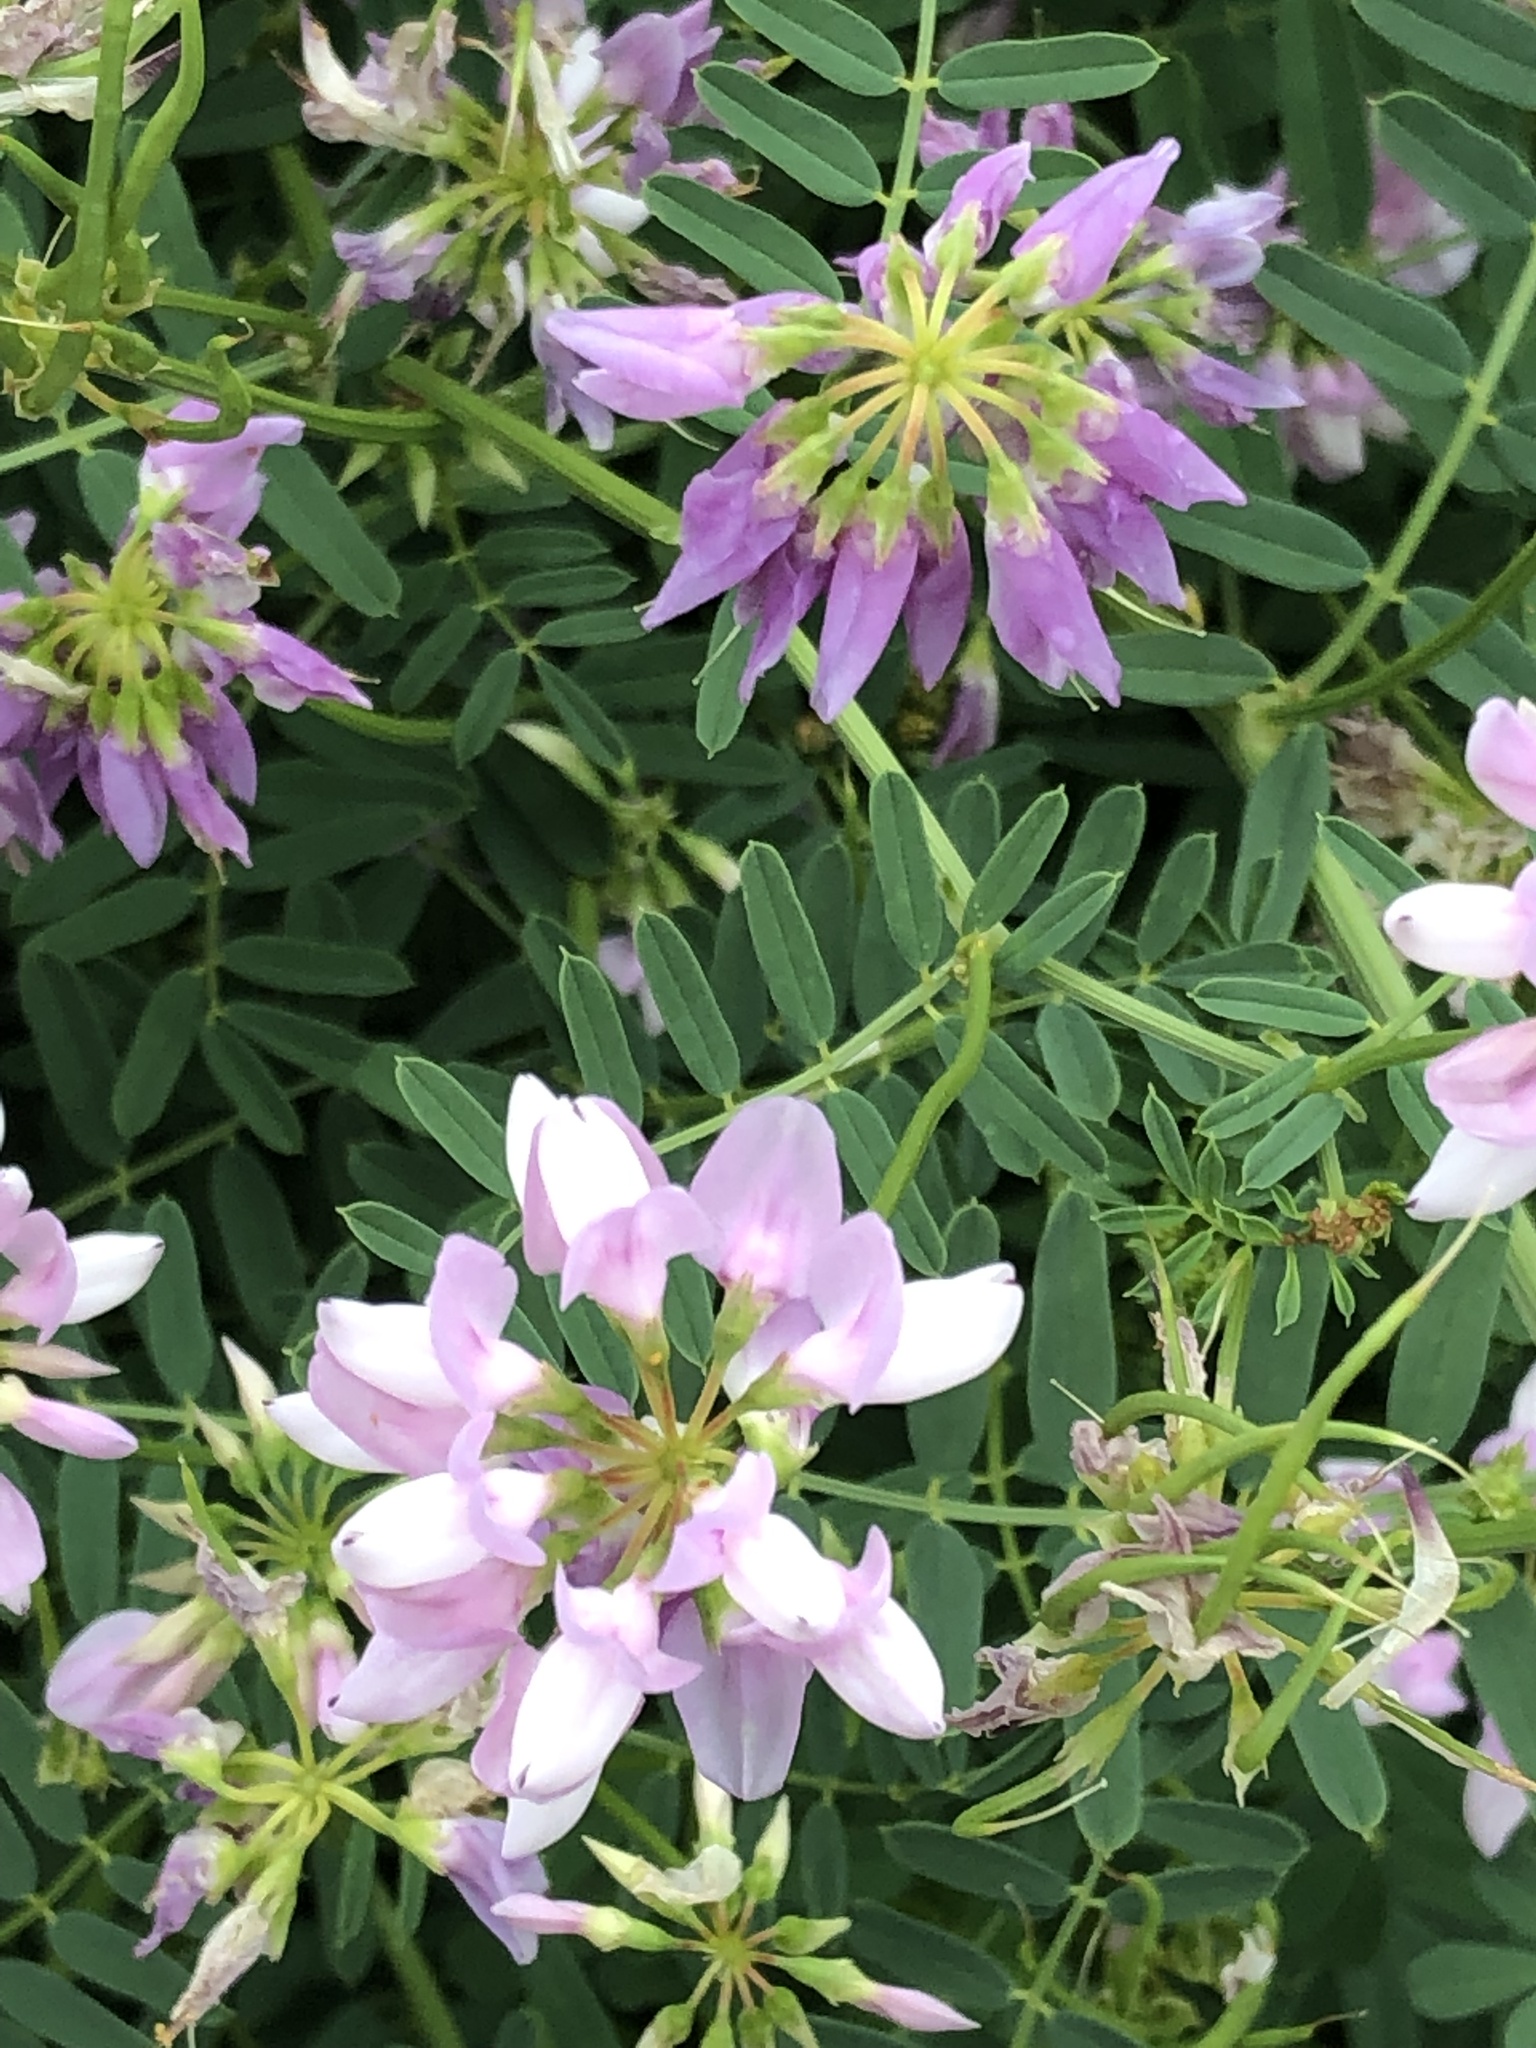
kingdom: Plantae
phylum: Tracheophyta
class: Magnoliopsida
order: Fabales
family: Fabaceae
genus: Coronilla
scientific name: Coronilla varia
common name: Crownvetch
